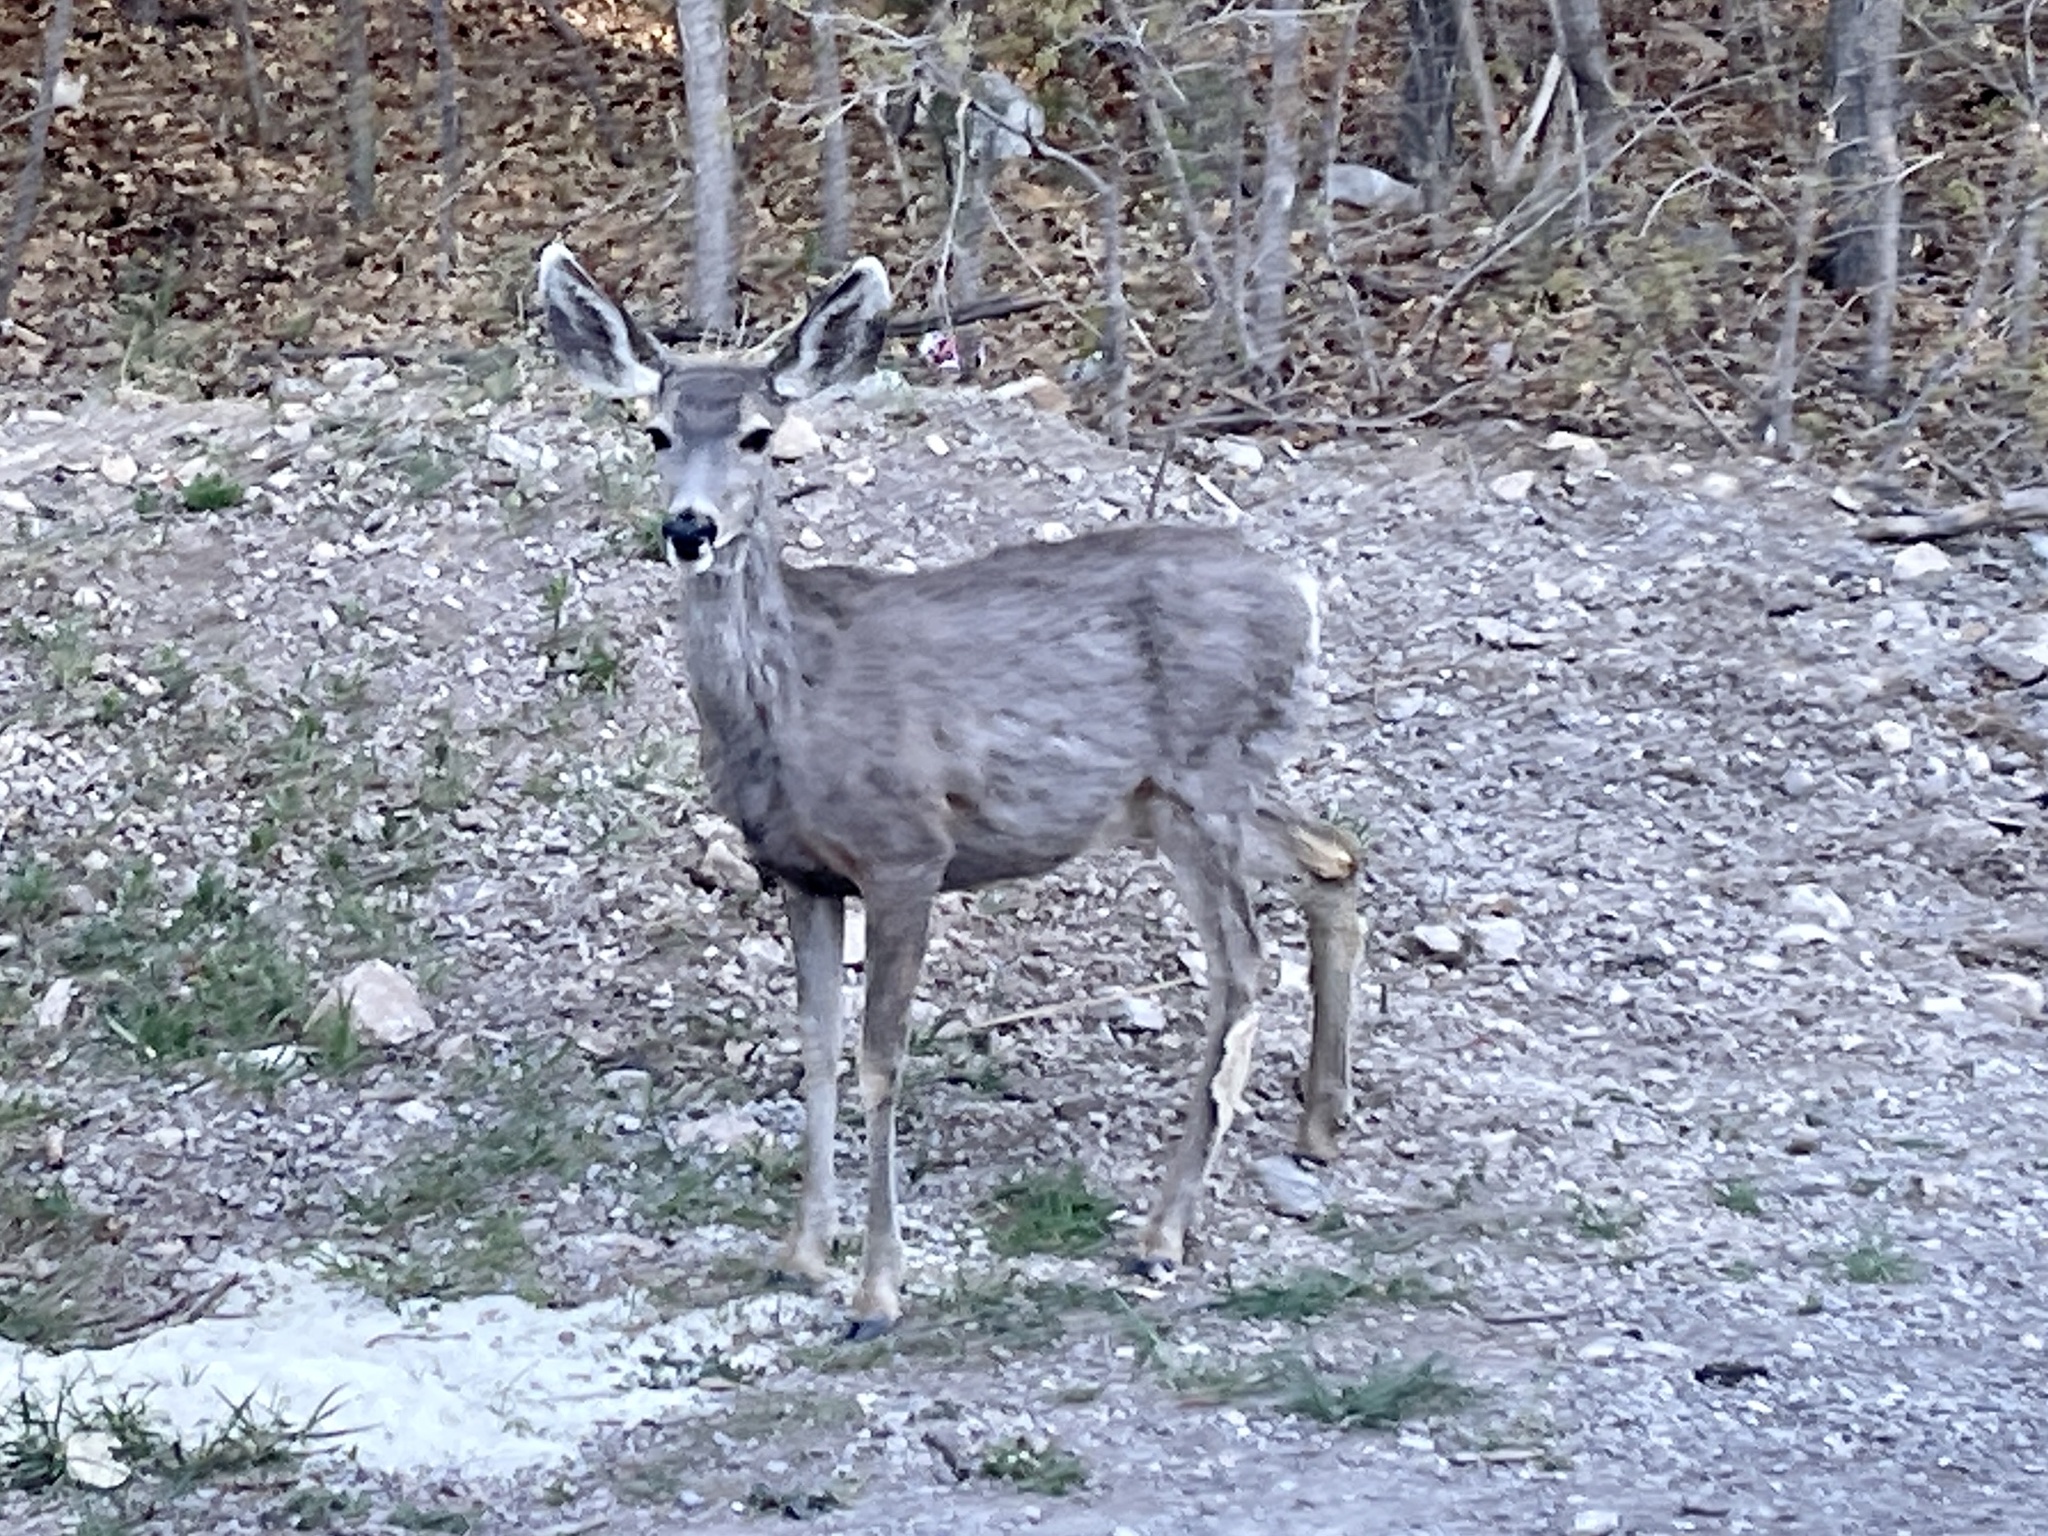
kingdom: Animalia
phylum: Chordata
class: Mammalia
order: Artiodactyla
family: Cervidae
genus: Odocoileus
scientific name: Odocoileus hemionus
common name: Mule deer
